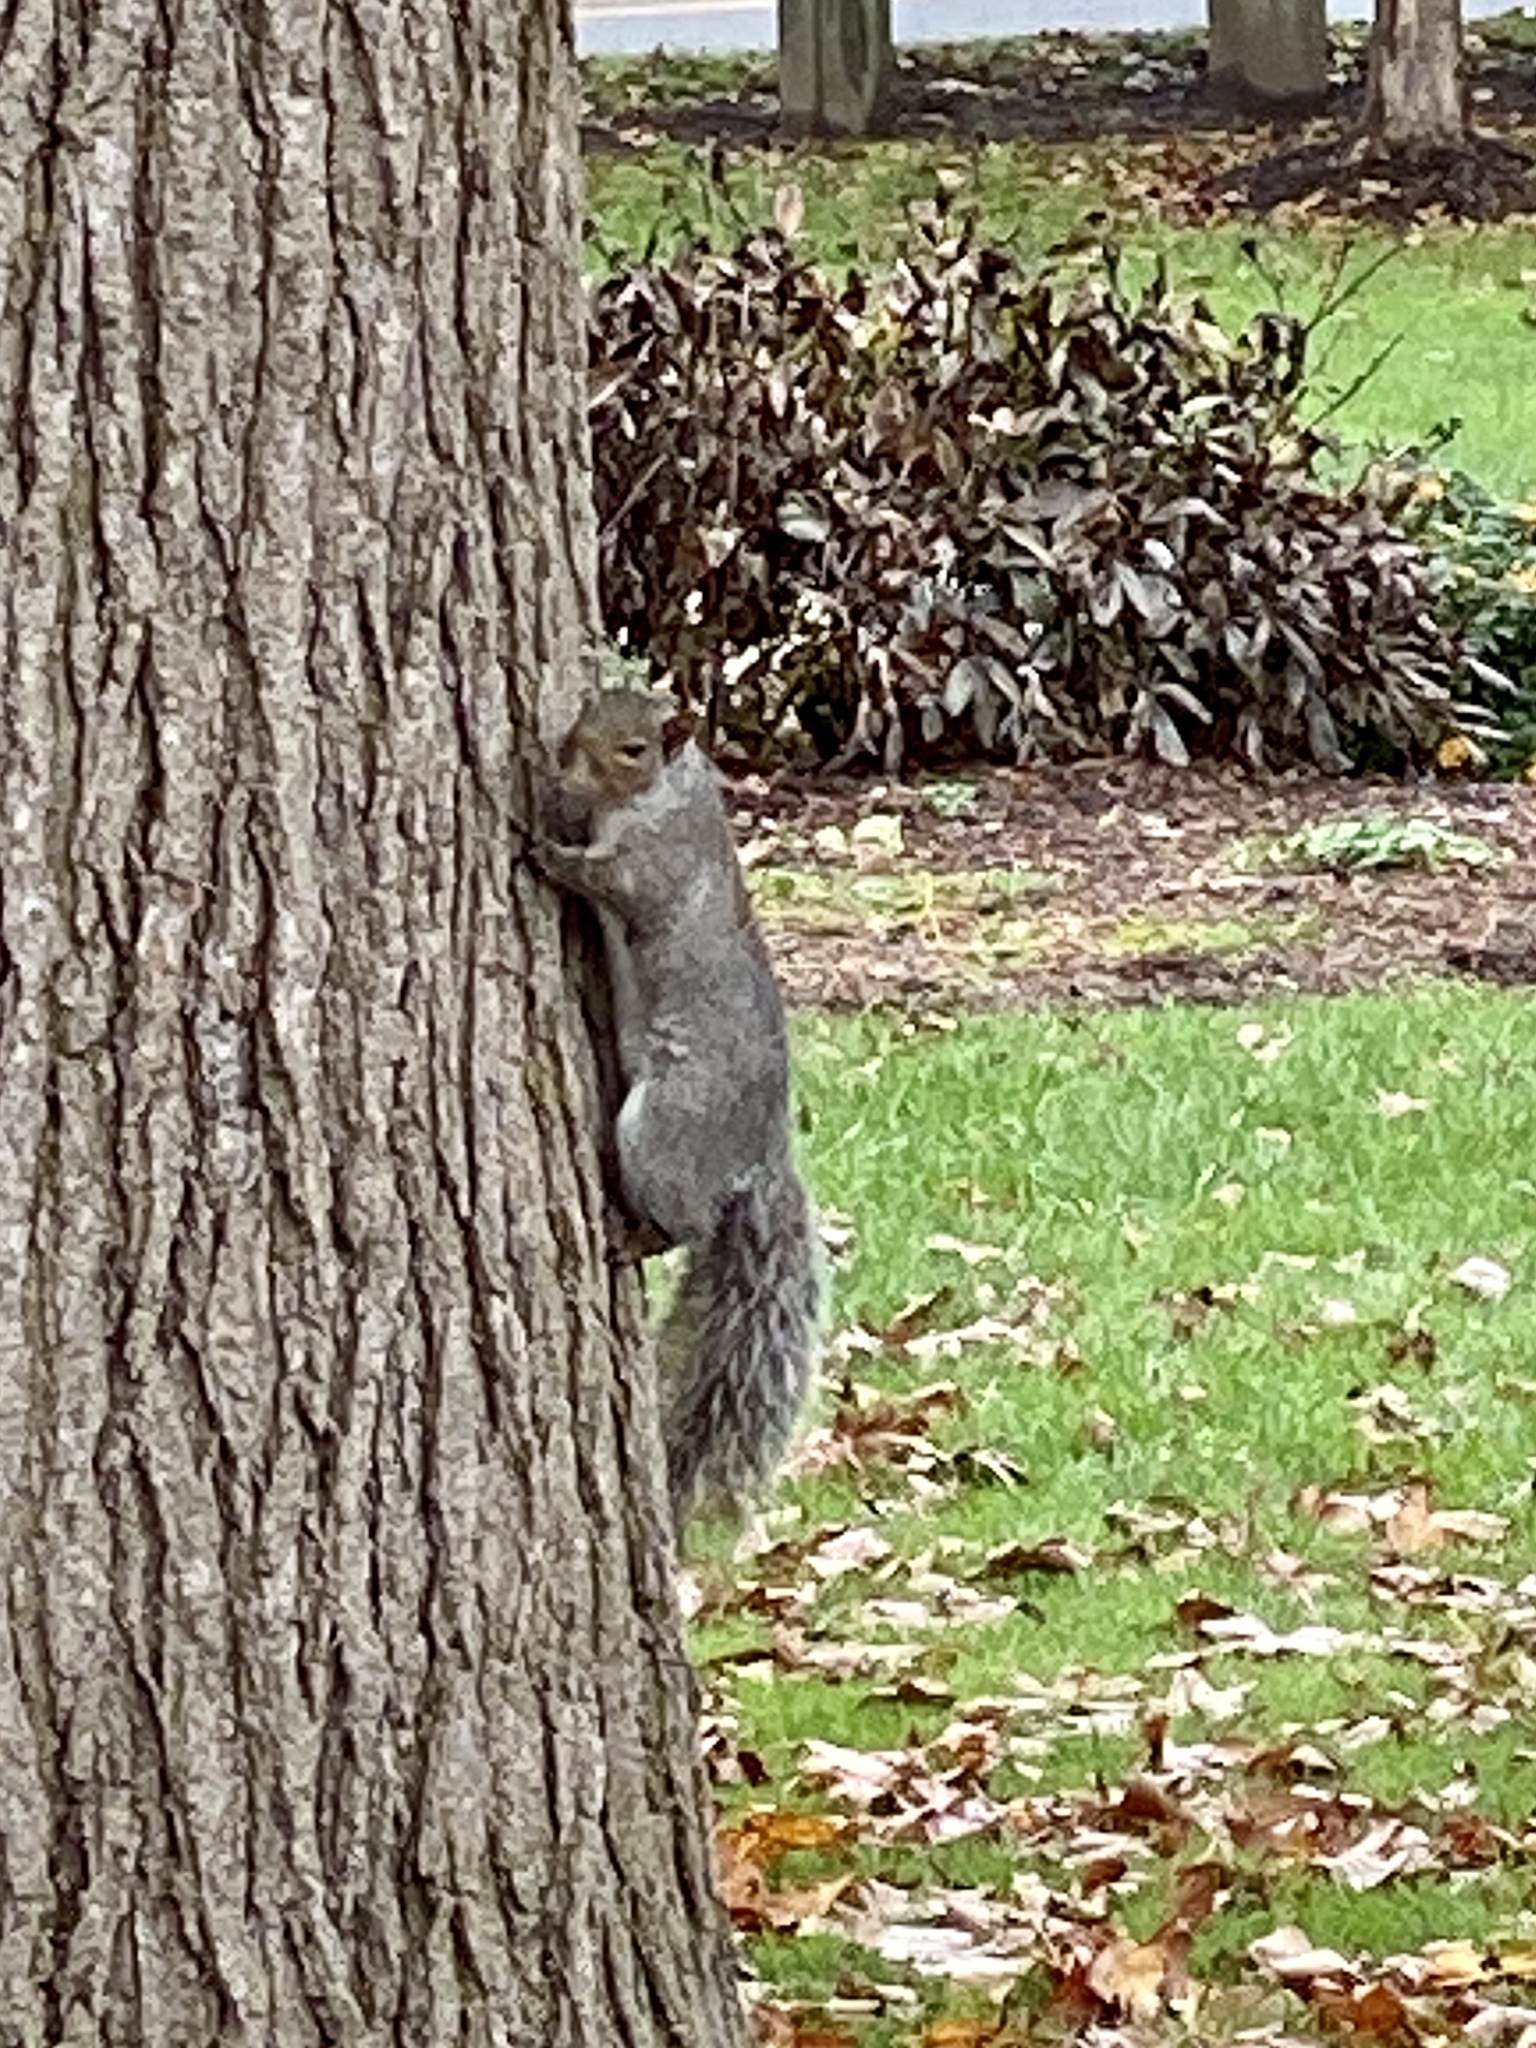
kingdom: Animalia
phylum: Chordata
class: Mammalia
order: Rodentia
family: Sciuridae
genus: Sciurus
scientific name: Sciurus carolinensis
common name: Eastern gray squirrel
